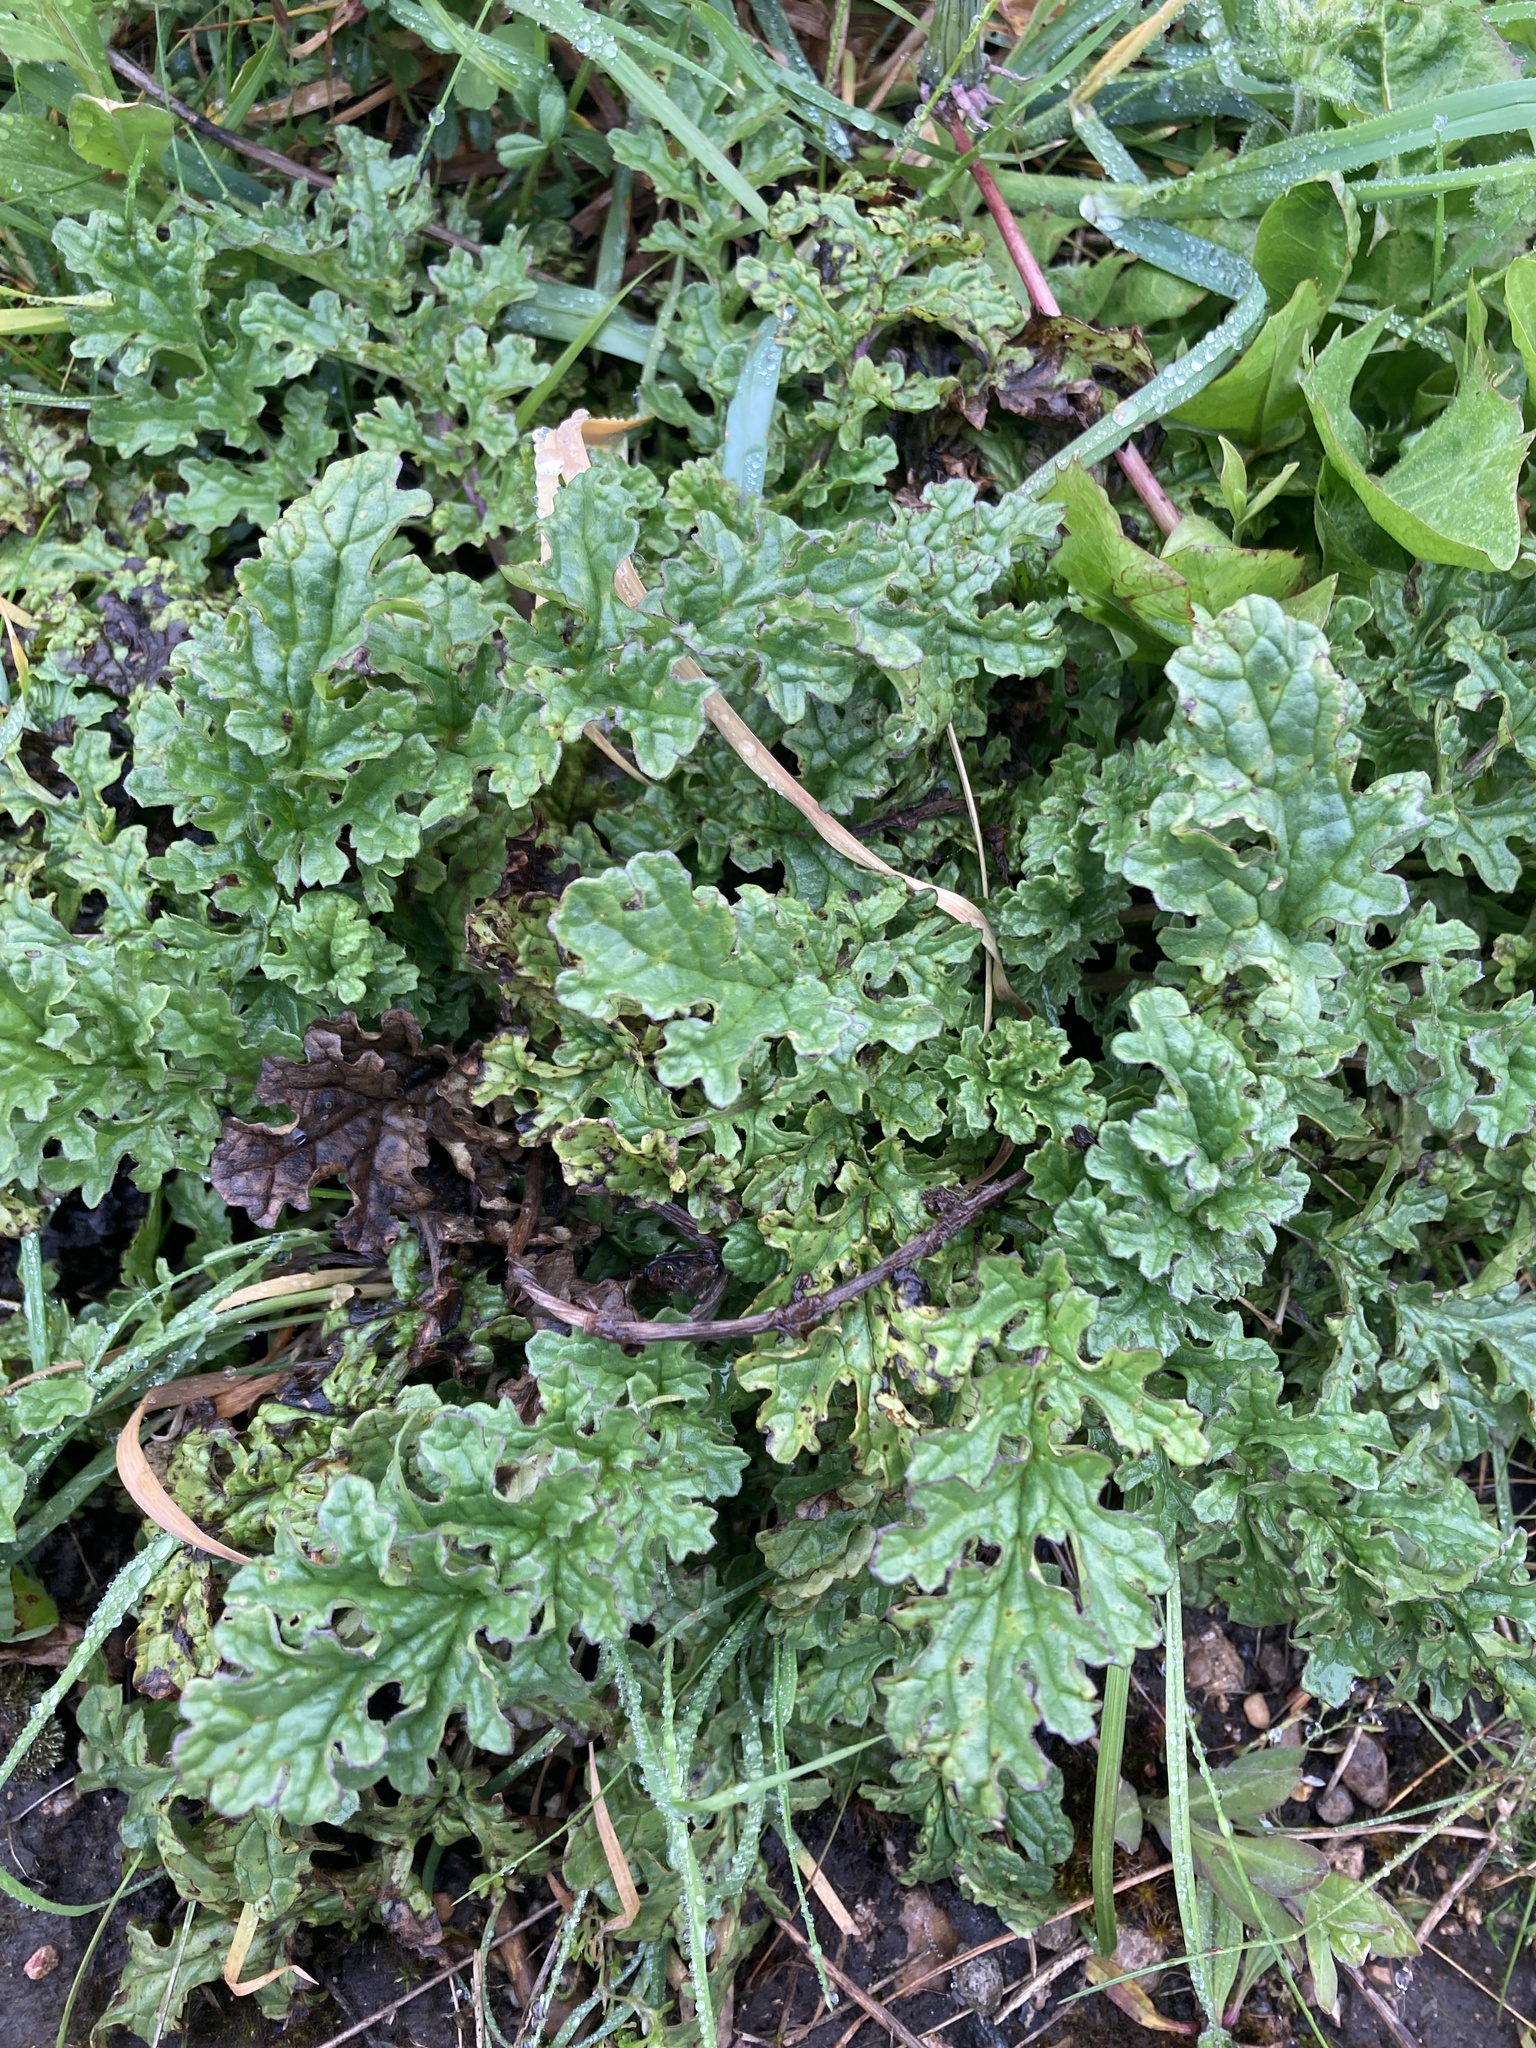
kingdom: Plantae
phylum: Tracheophyta
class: Magnoliopsida
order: Asterales
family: Asteraceae
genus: Jacobaea
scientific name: Jacobaea vulgaris
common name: Stinking willie
